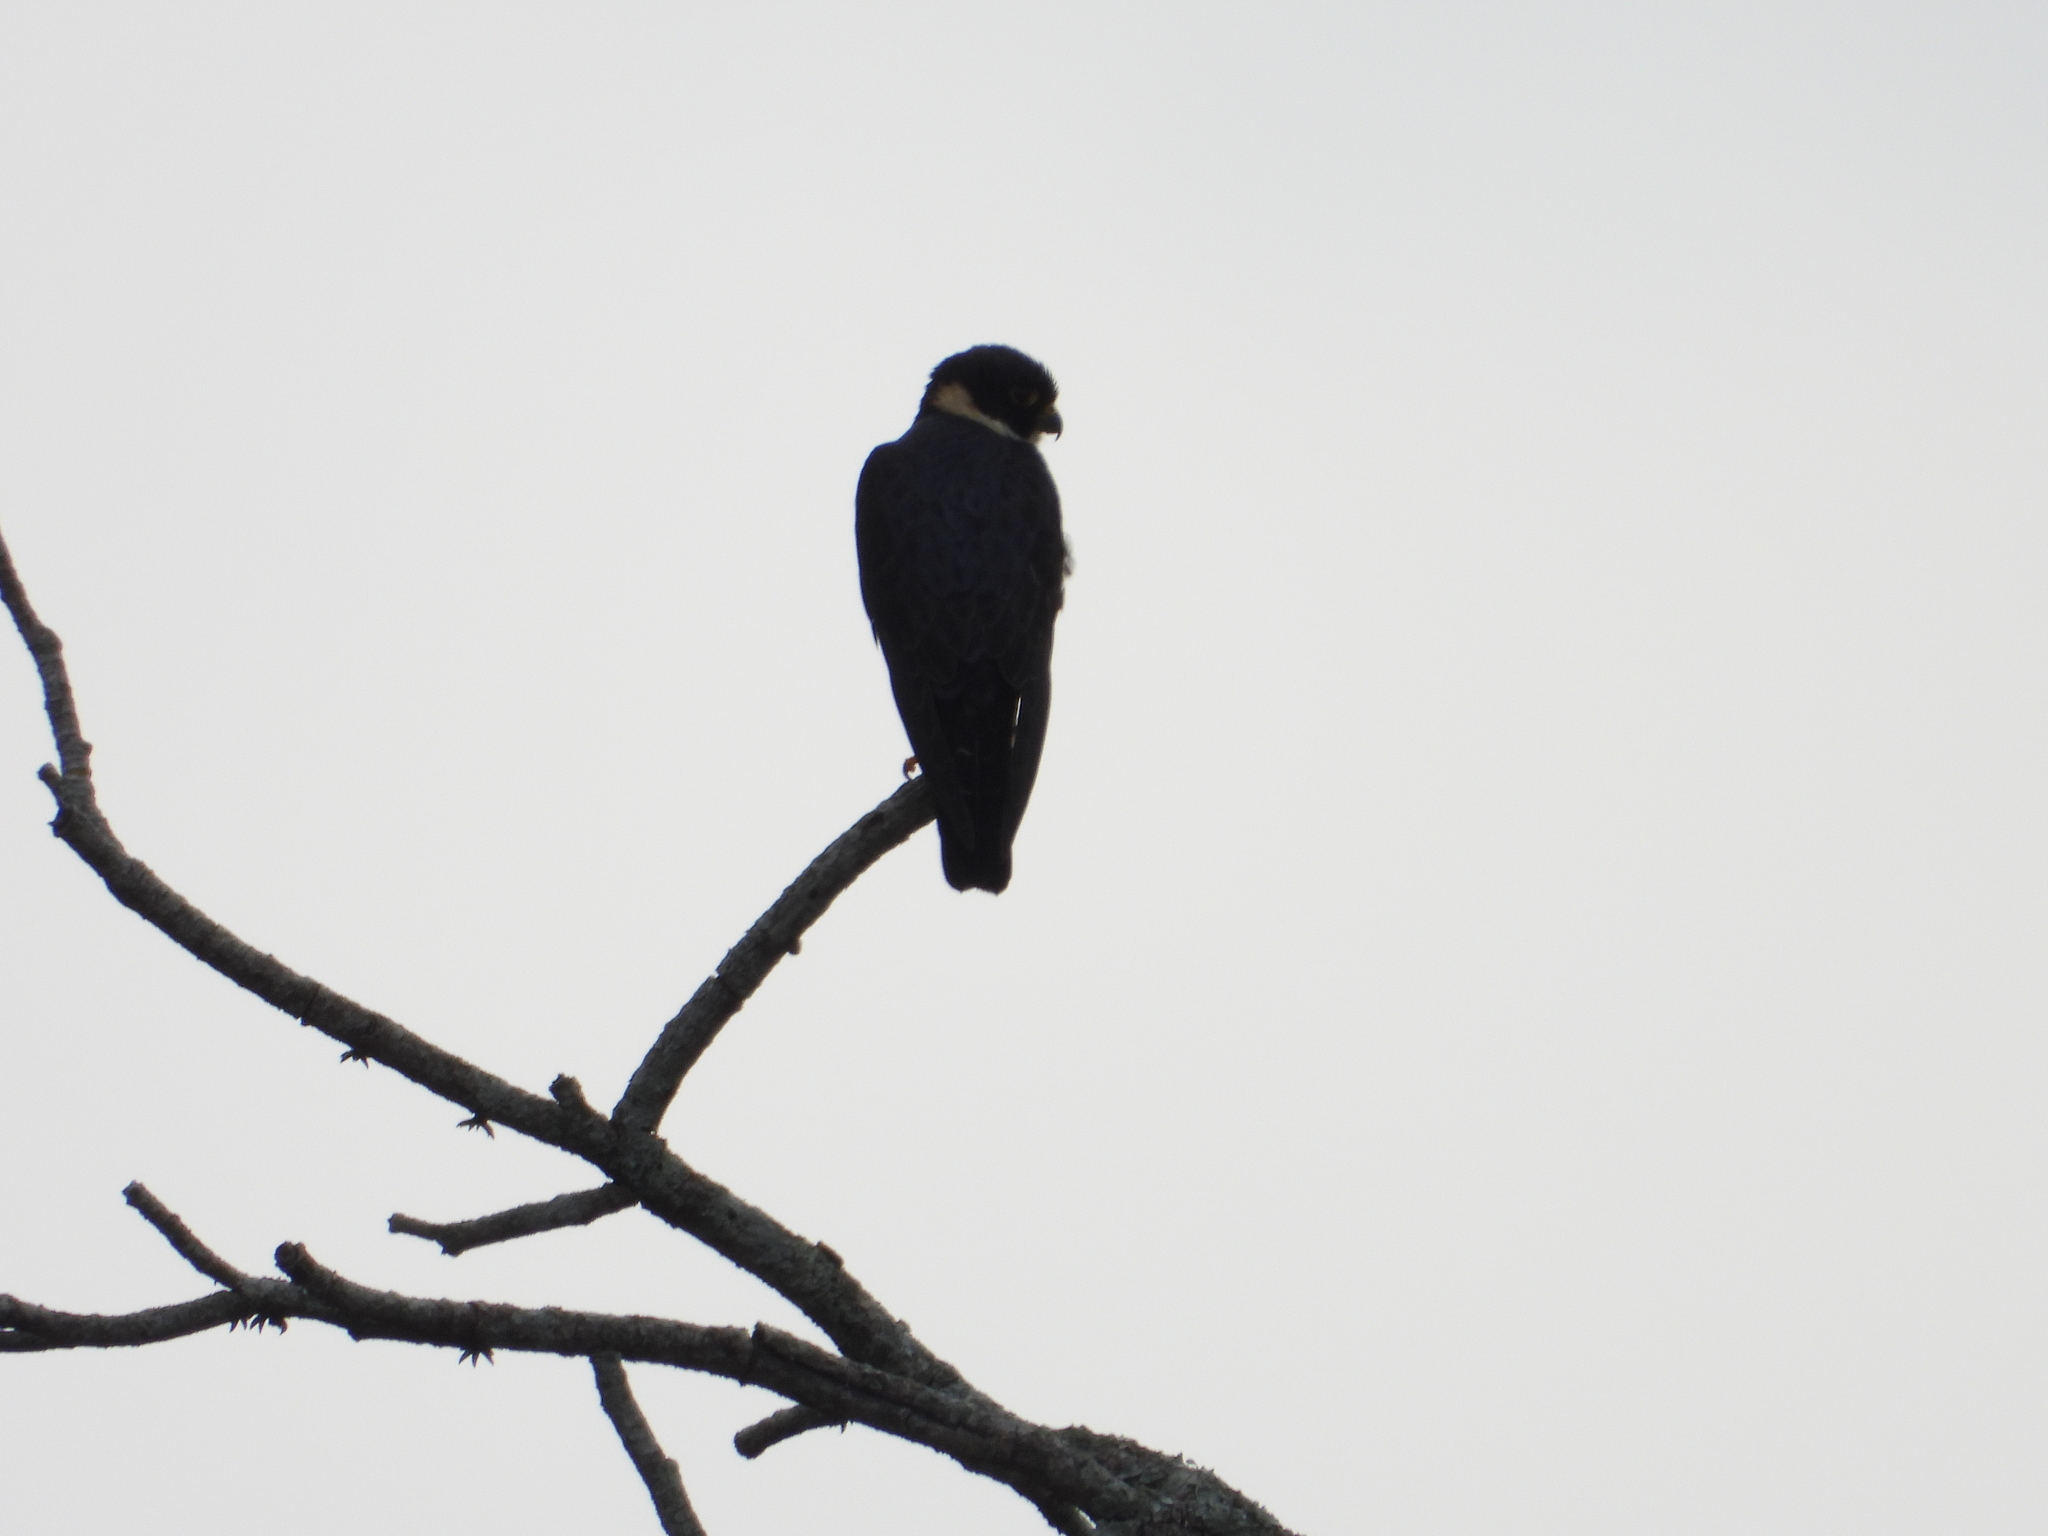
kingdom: Animalia
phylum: Chordata
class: Aves
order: Falconiformes
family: Falconidae
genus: Falco
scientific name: Falco rufigularis
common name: Bat falcon
